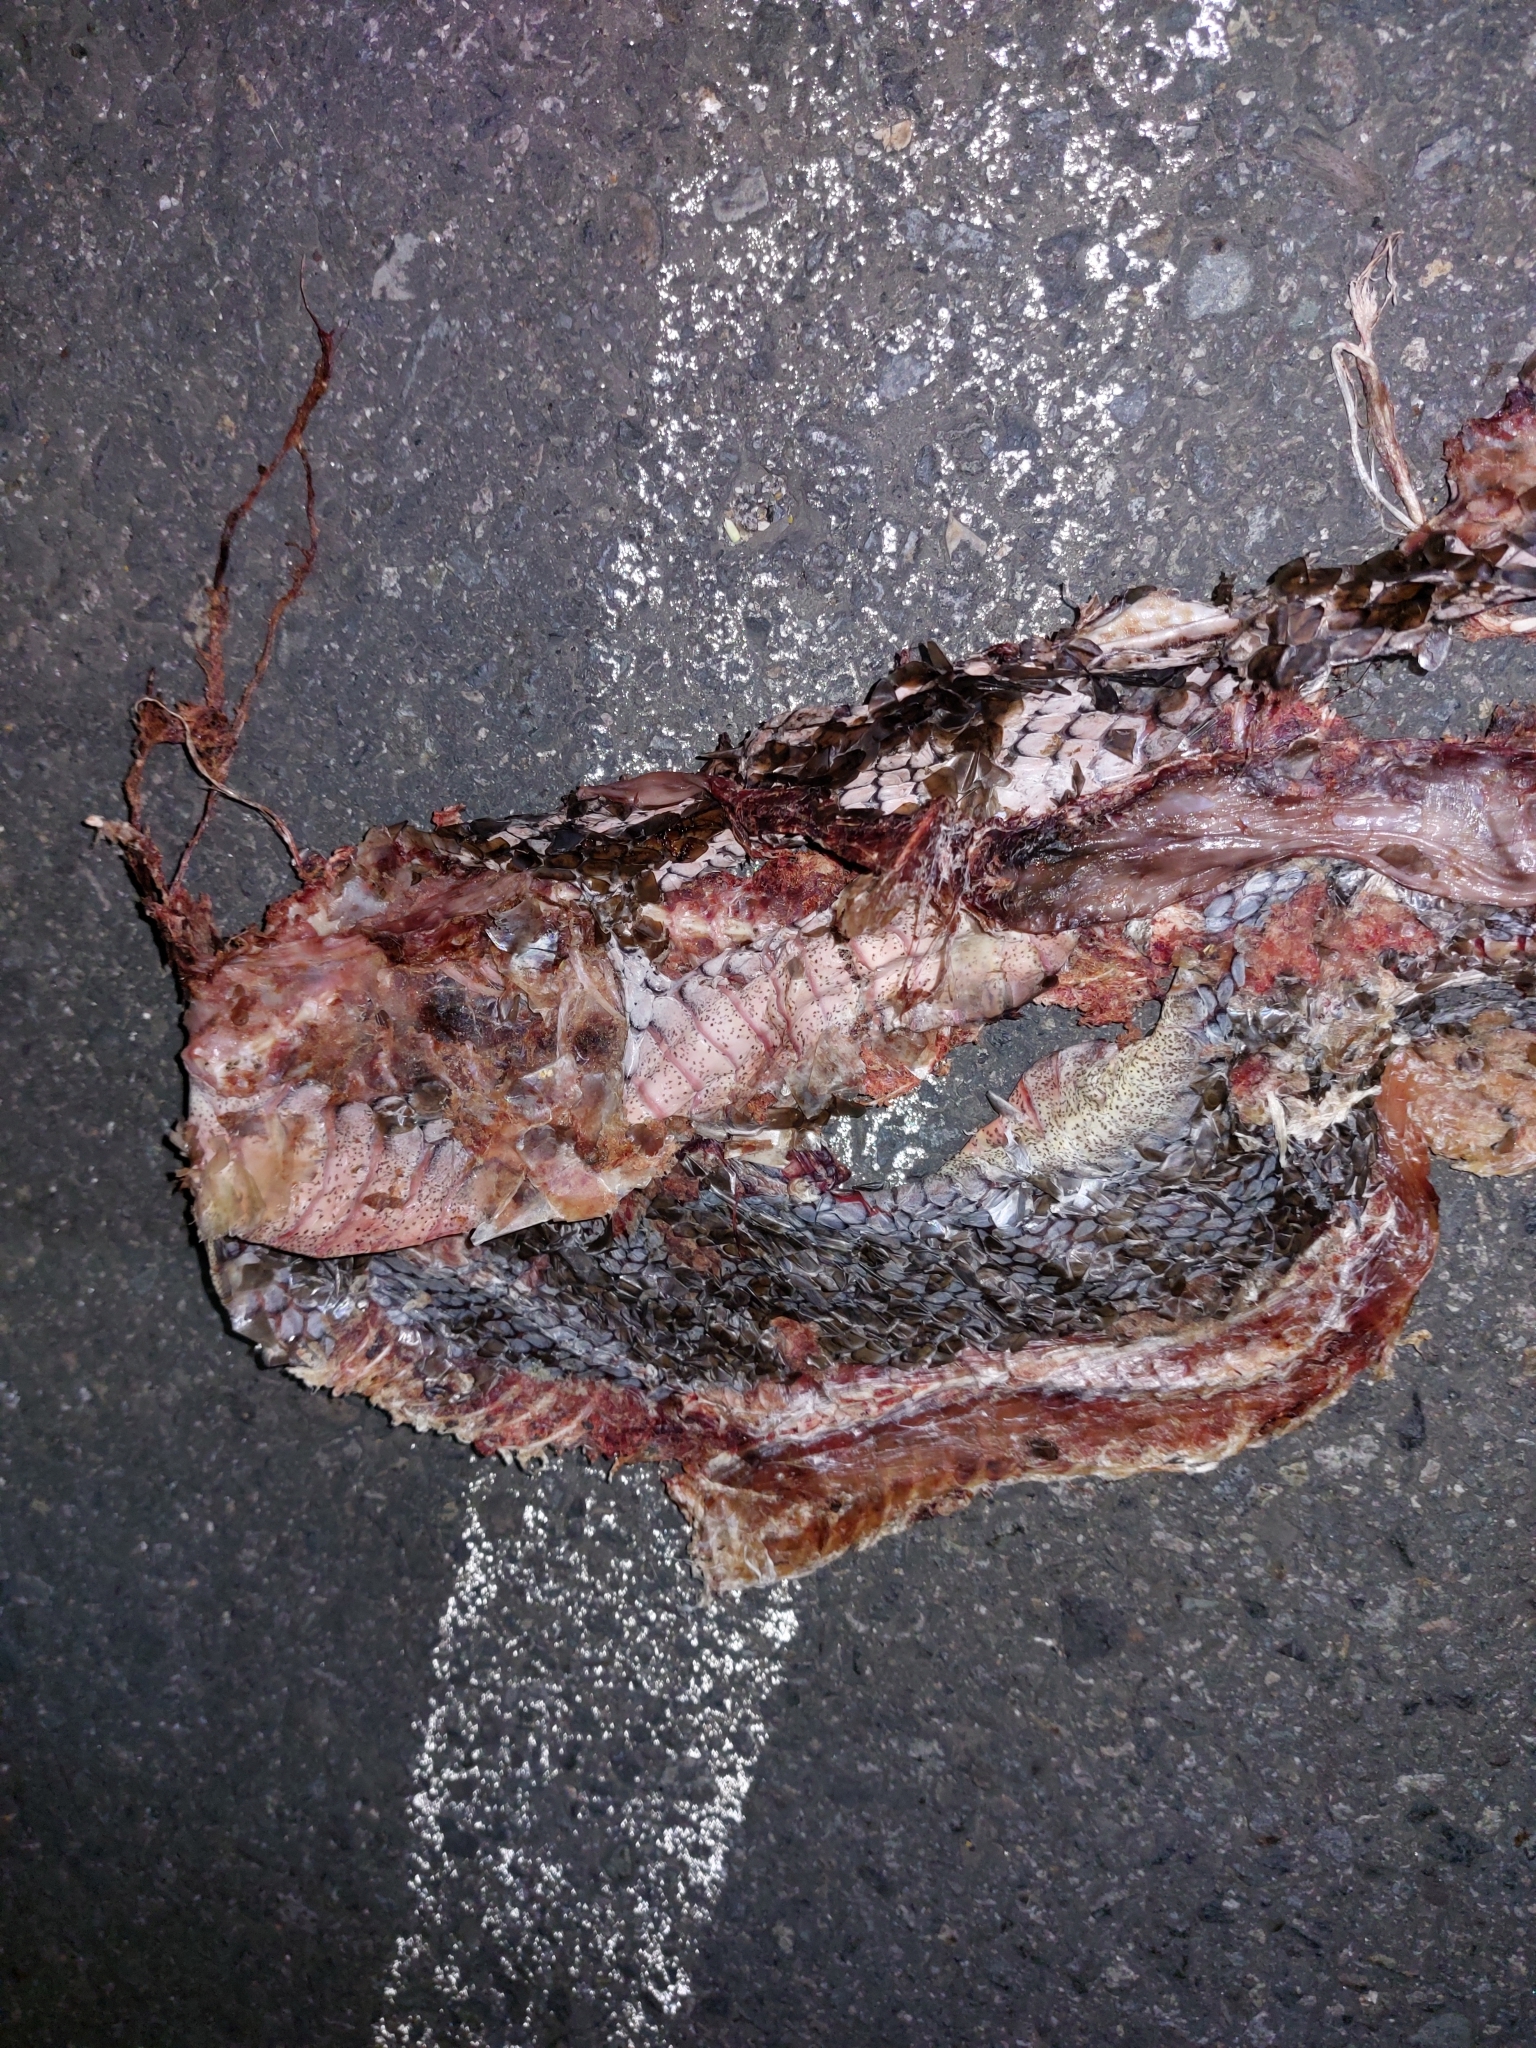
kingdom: Animalia
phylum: Chordata
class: Squamata
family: Colubridae
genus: Masticophis
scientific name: Masticophis mentovarius
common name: Neotropical whip snake
